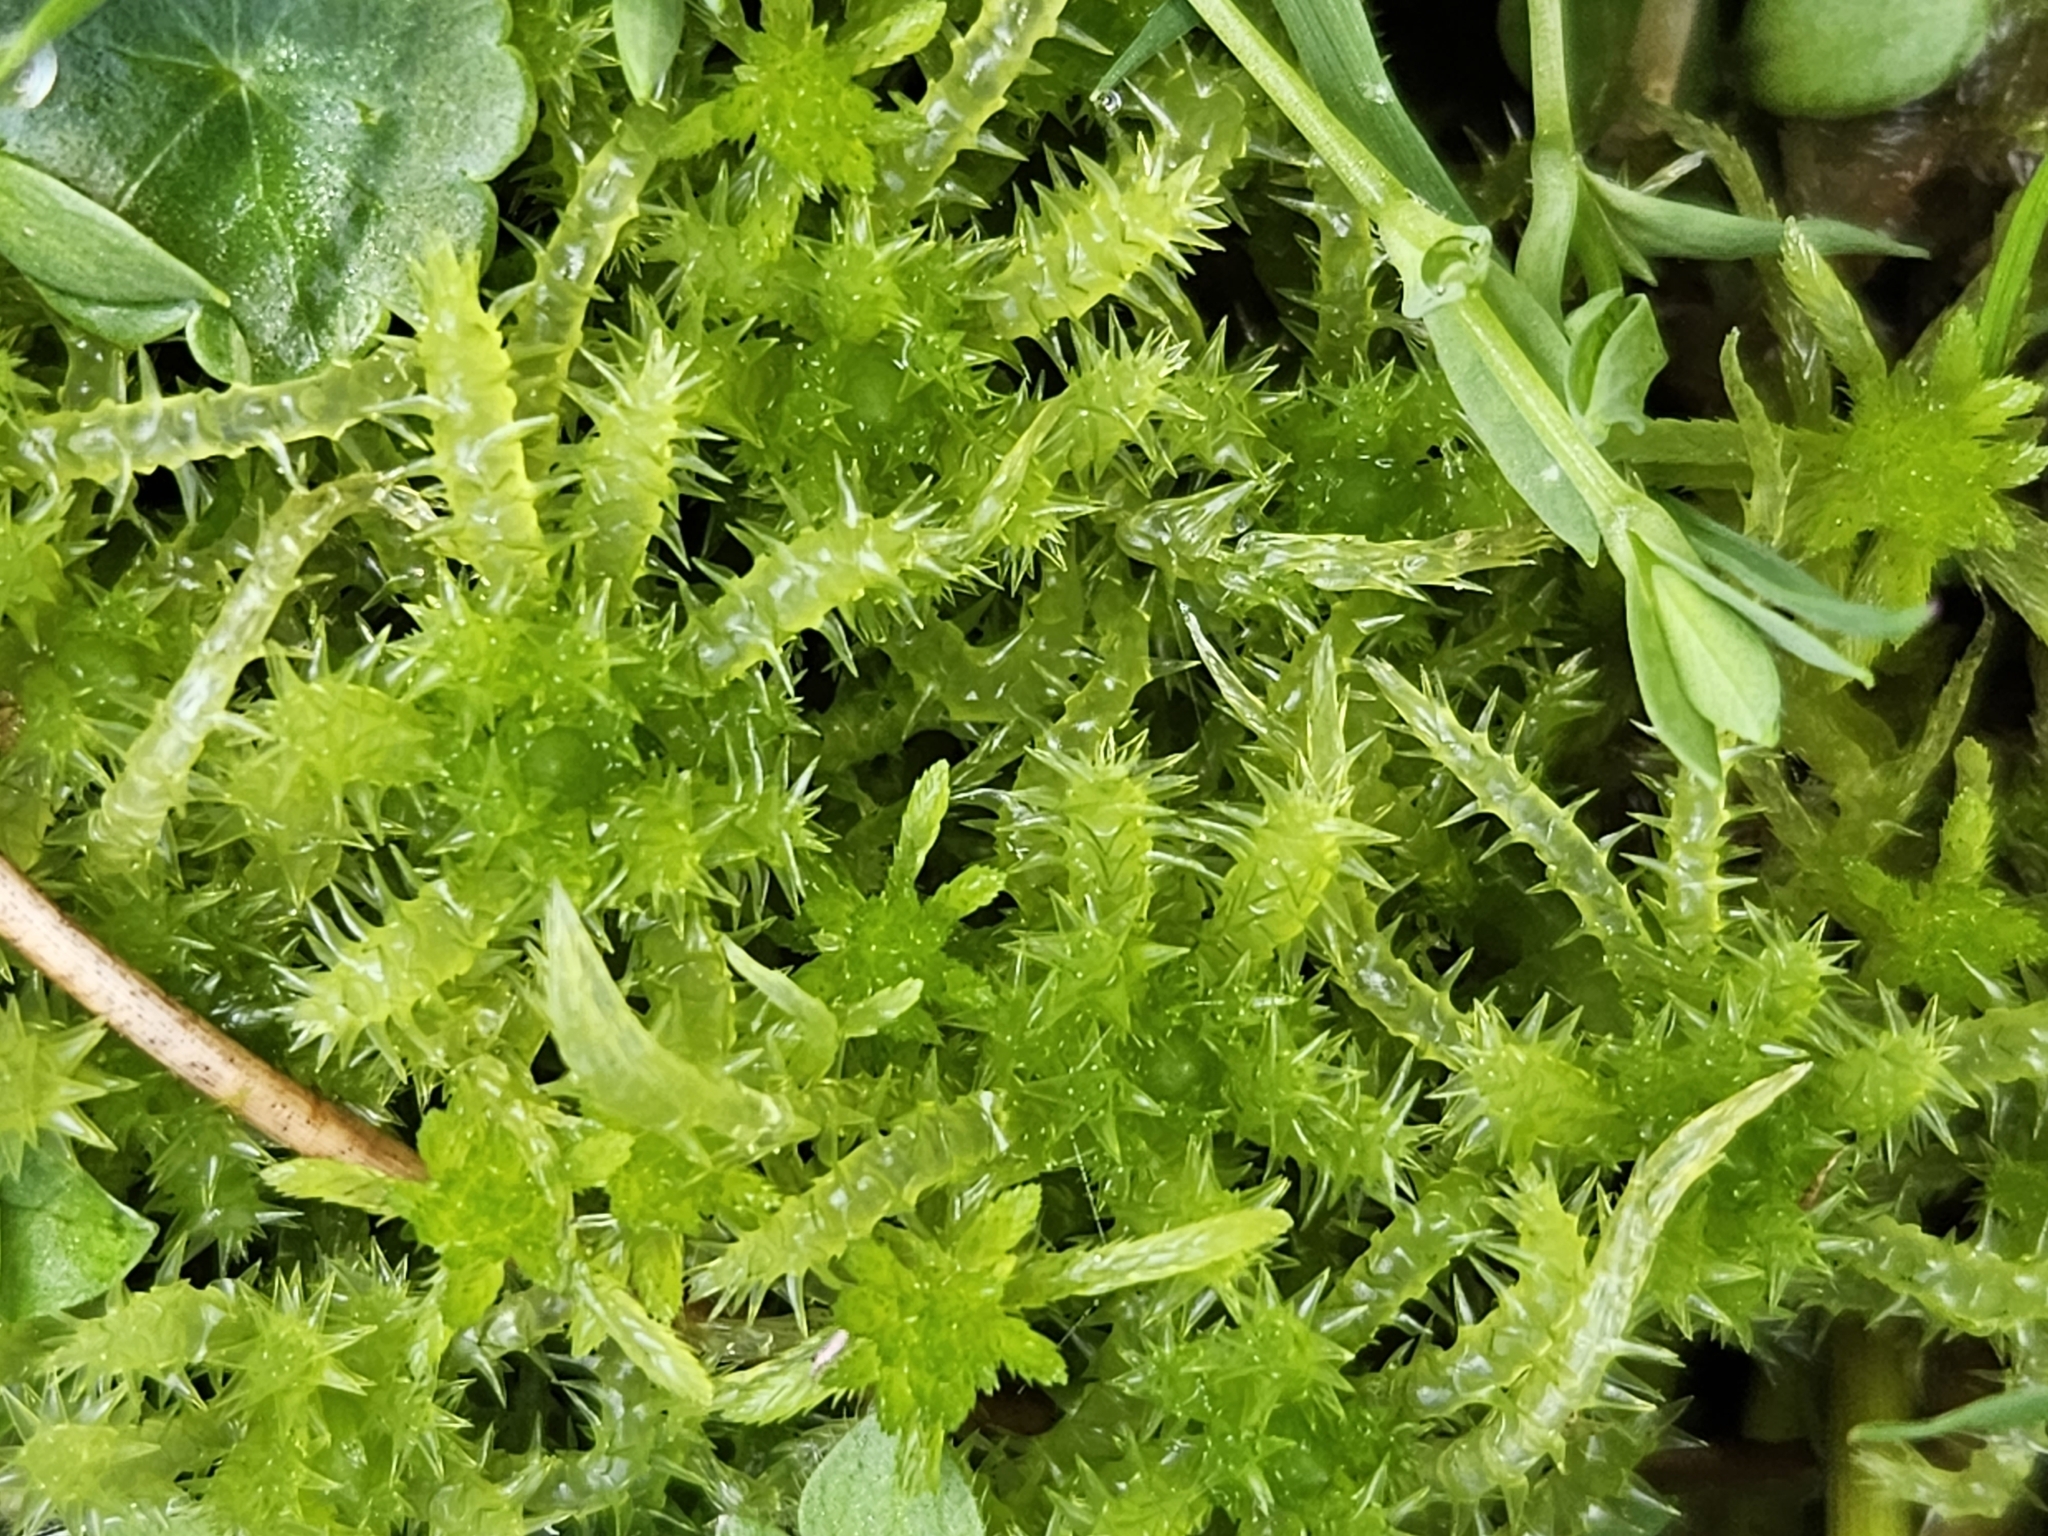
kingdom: Plantae
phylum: Bryophyta
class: Sphagnopsida
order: Sphagnales
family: Sphagnaceae
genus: Sphagnum
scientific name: Sphagnum squarrosum
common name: Shaggy peat moss
